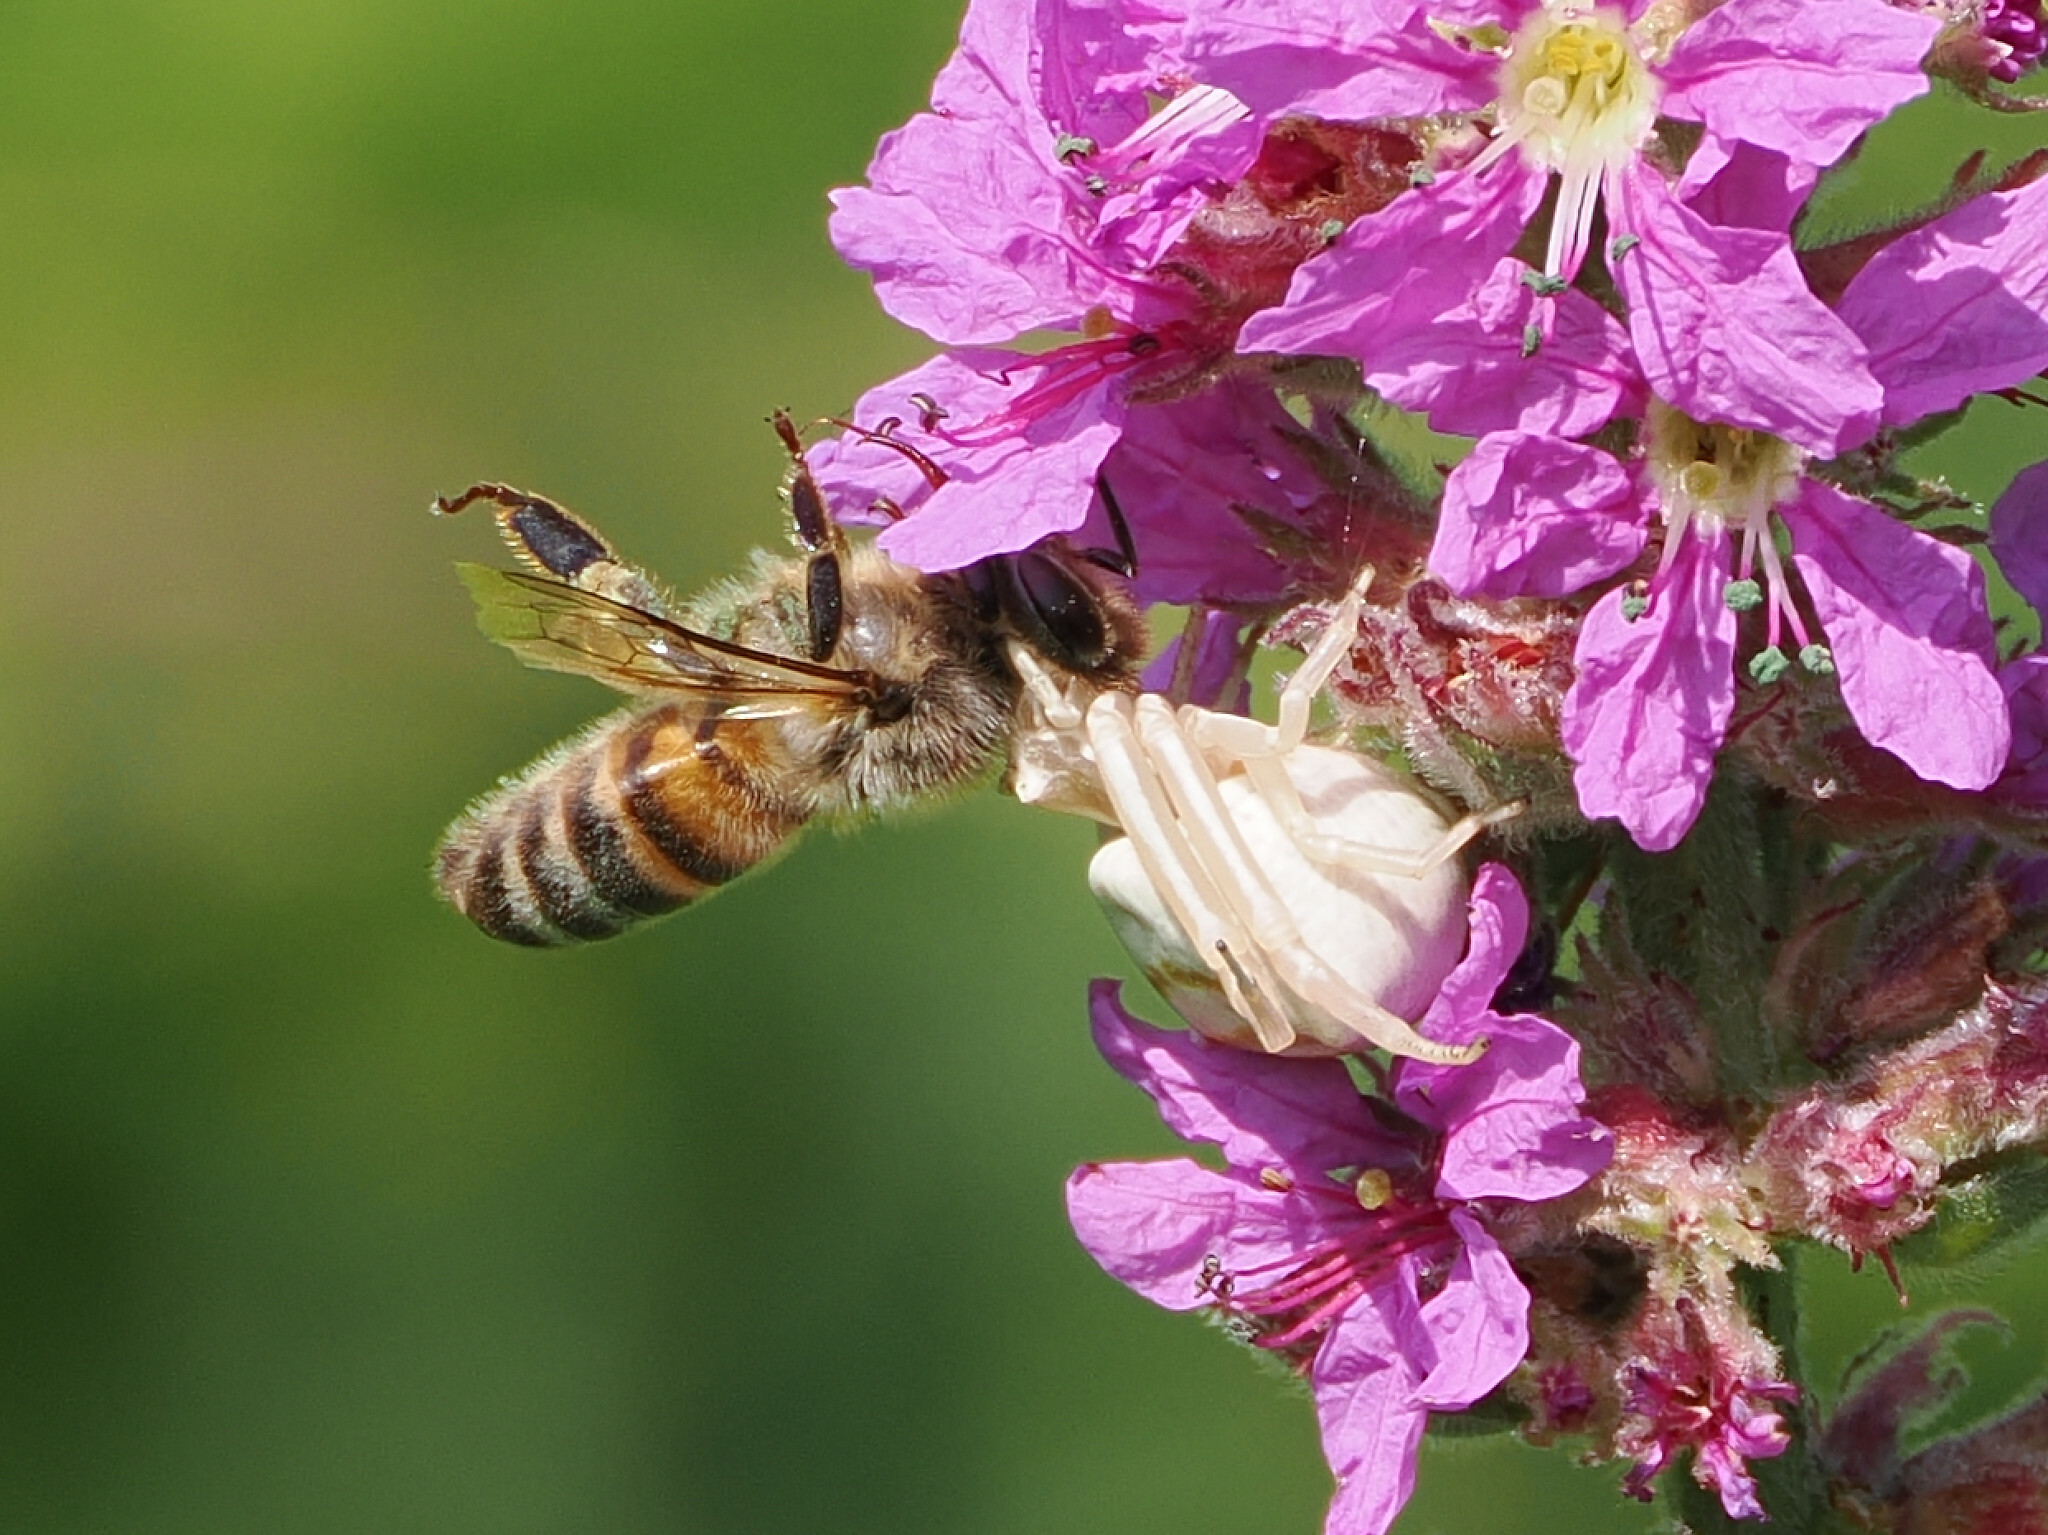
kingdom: Animalia
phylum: Arthropoda
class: Arachnida
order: Araneae
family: Thomisidae
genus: Thomisus
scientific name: Thomisus onustus
